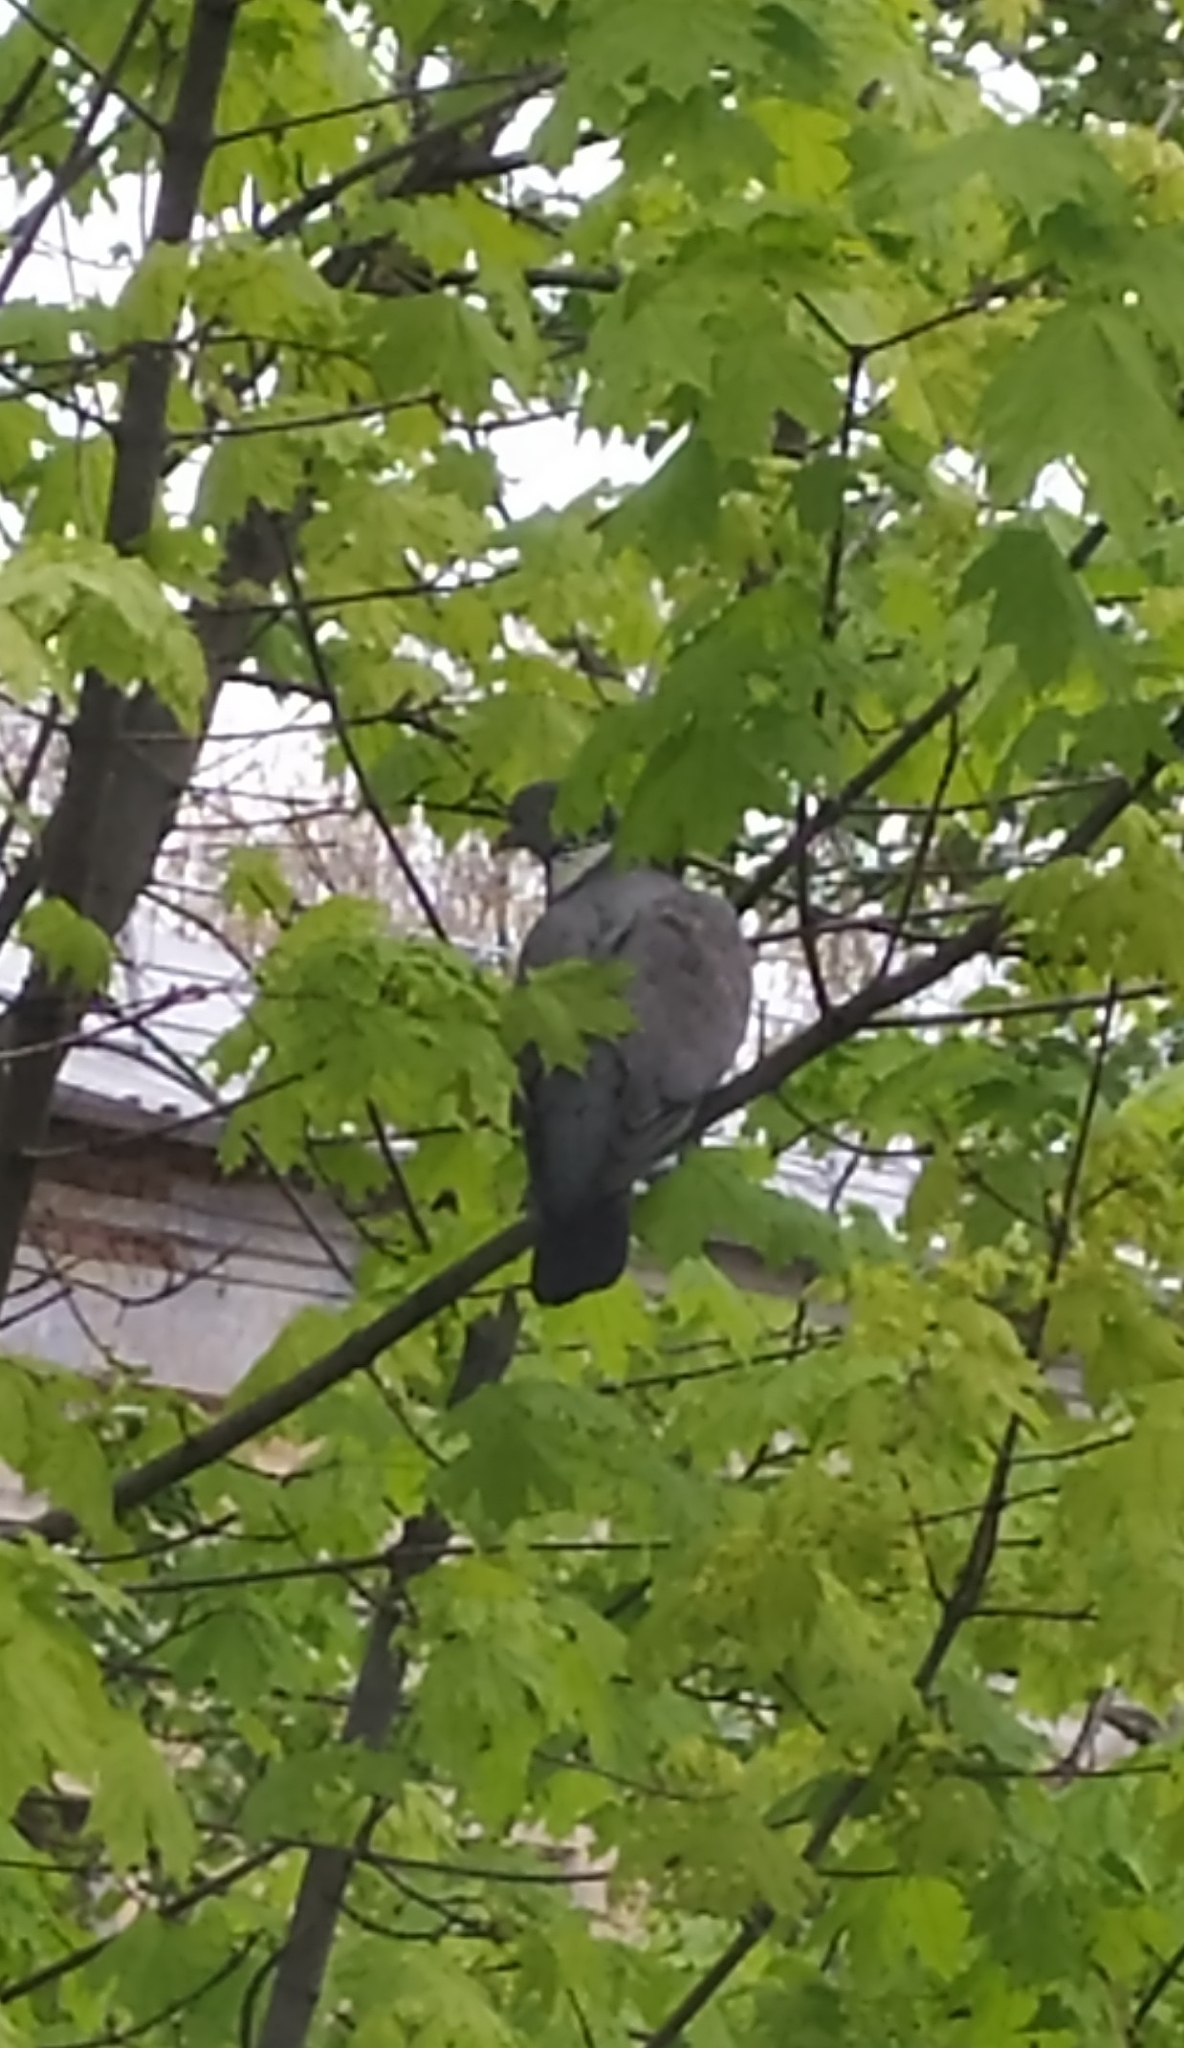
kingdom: Animalia
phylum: Chordata
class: Aves
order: Columbiformes
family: Columbidae
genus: Columba
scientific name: Columba palumbus
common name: Common wood pigeon
